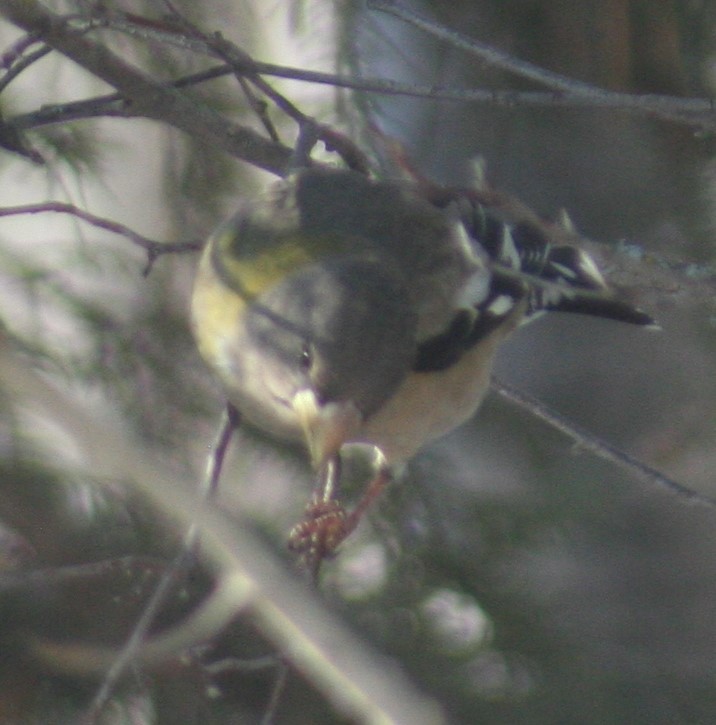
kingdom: Animalia
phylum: Chordata
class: Aves
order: Passeriformes
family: Fringillidae
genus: Hesperiphona
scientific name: Hesperiphona vespertina
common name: Evening grosbeak
